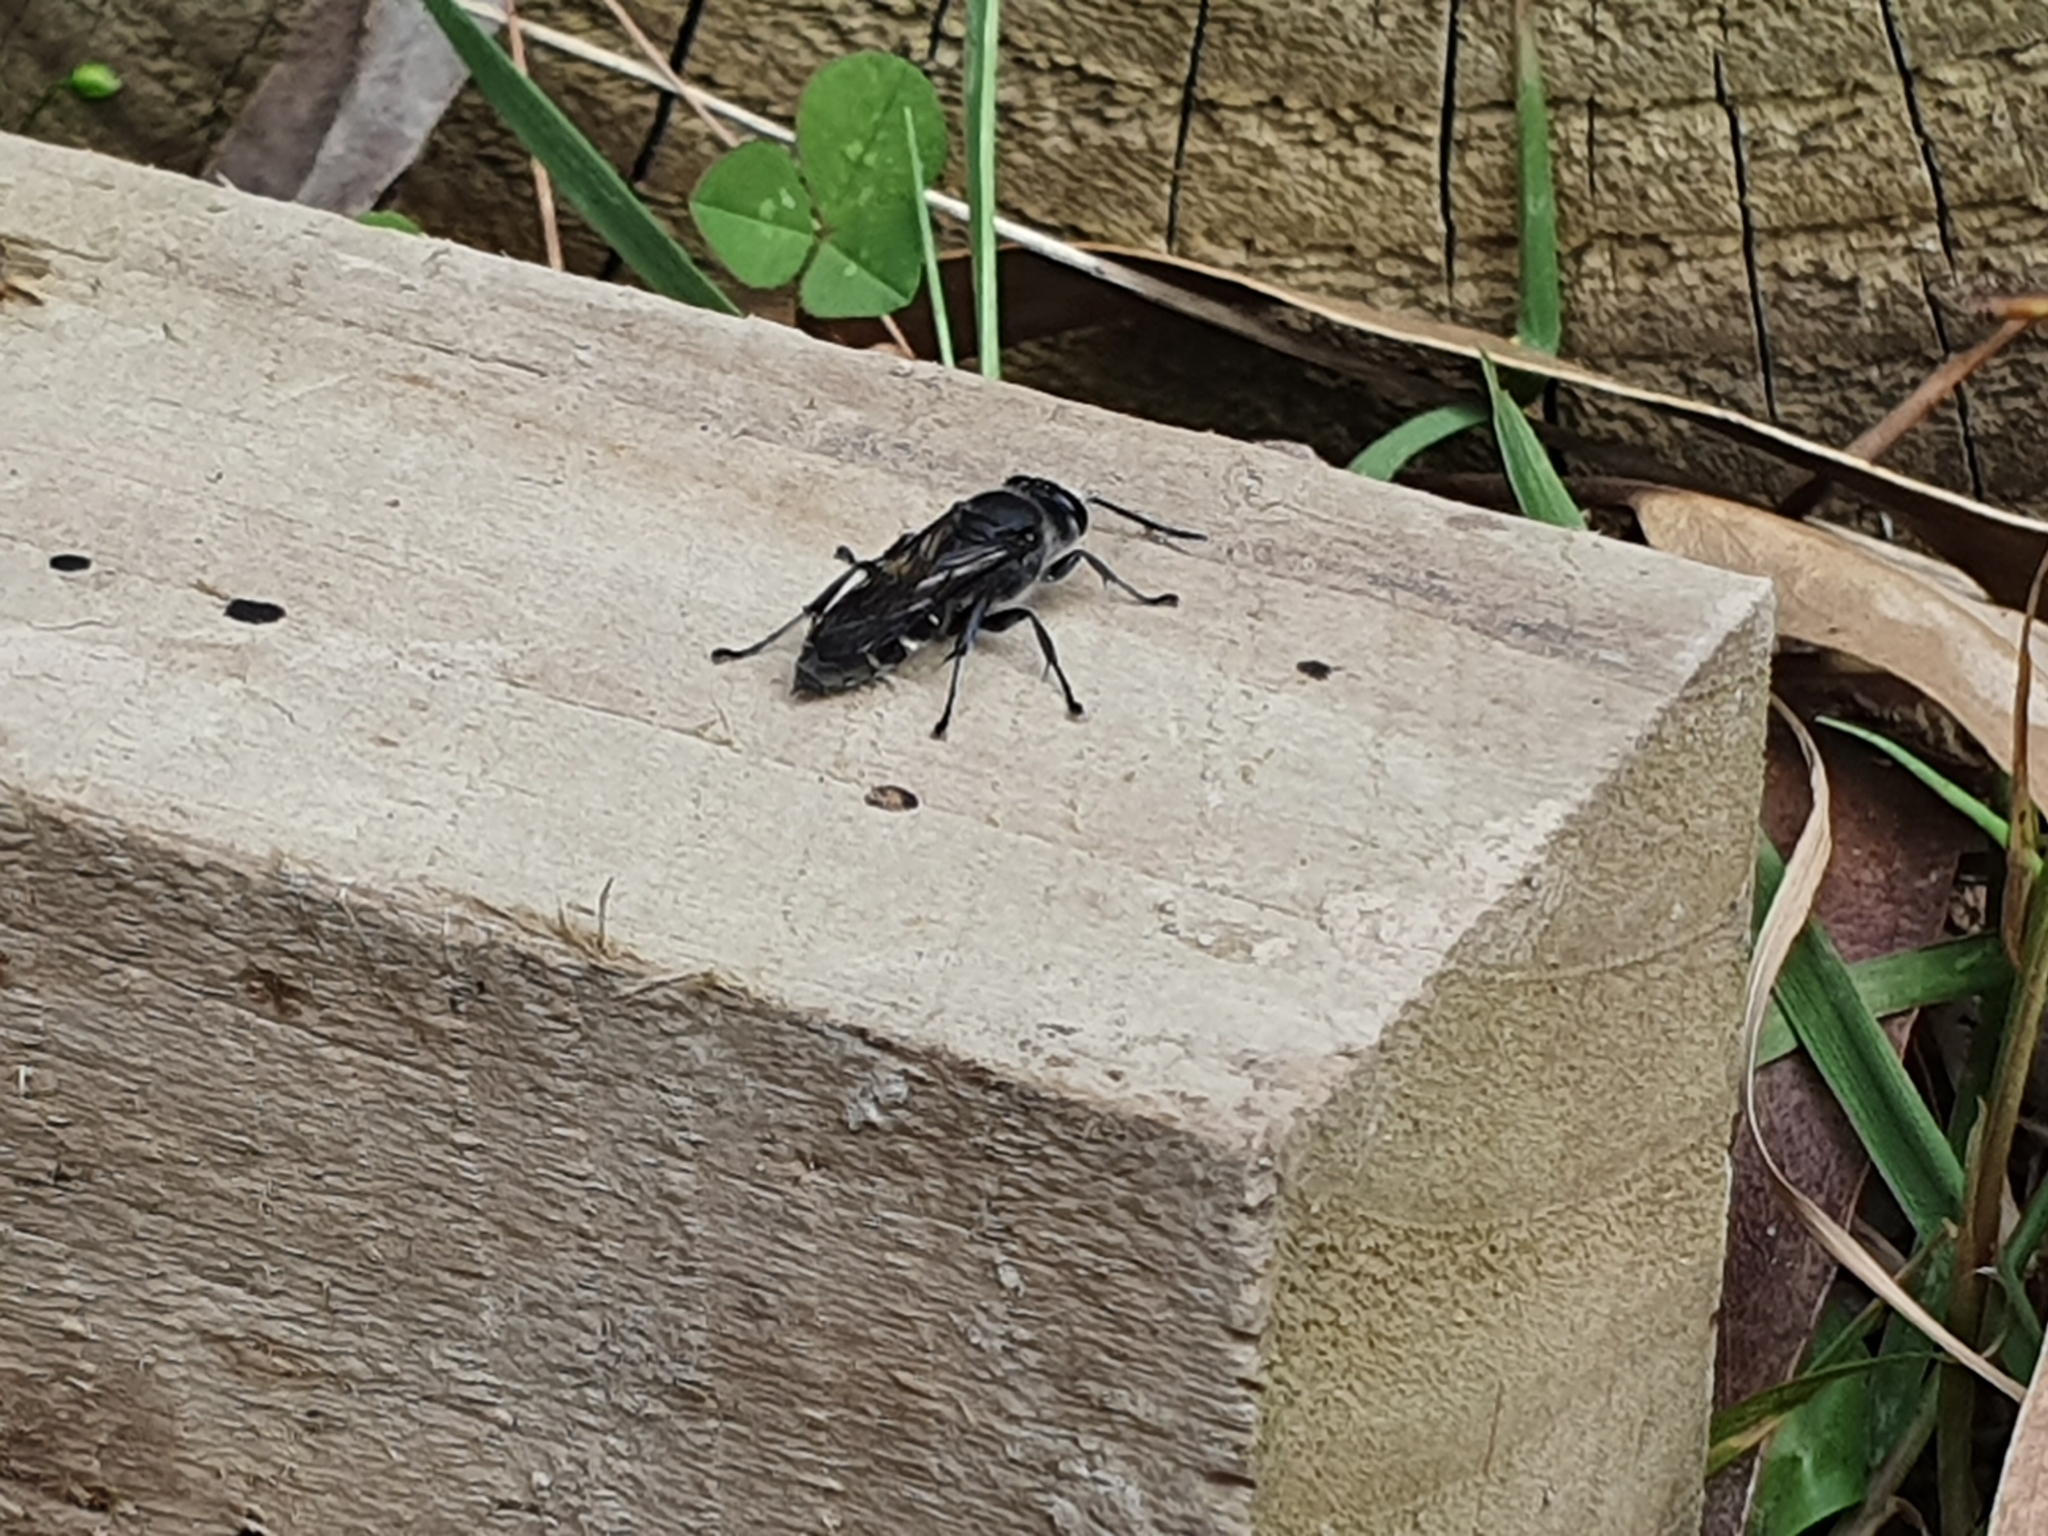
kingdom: Animalia
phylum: Arthropoda
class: Insecta
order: Hymenoptera
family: Crabronidae
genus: Pison
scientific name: Pison spinolae
